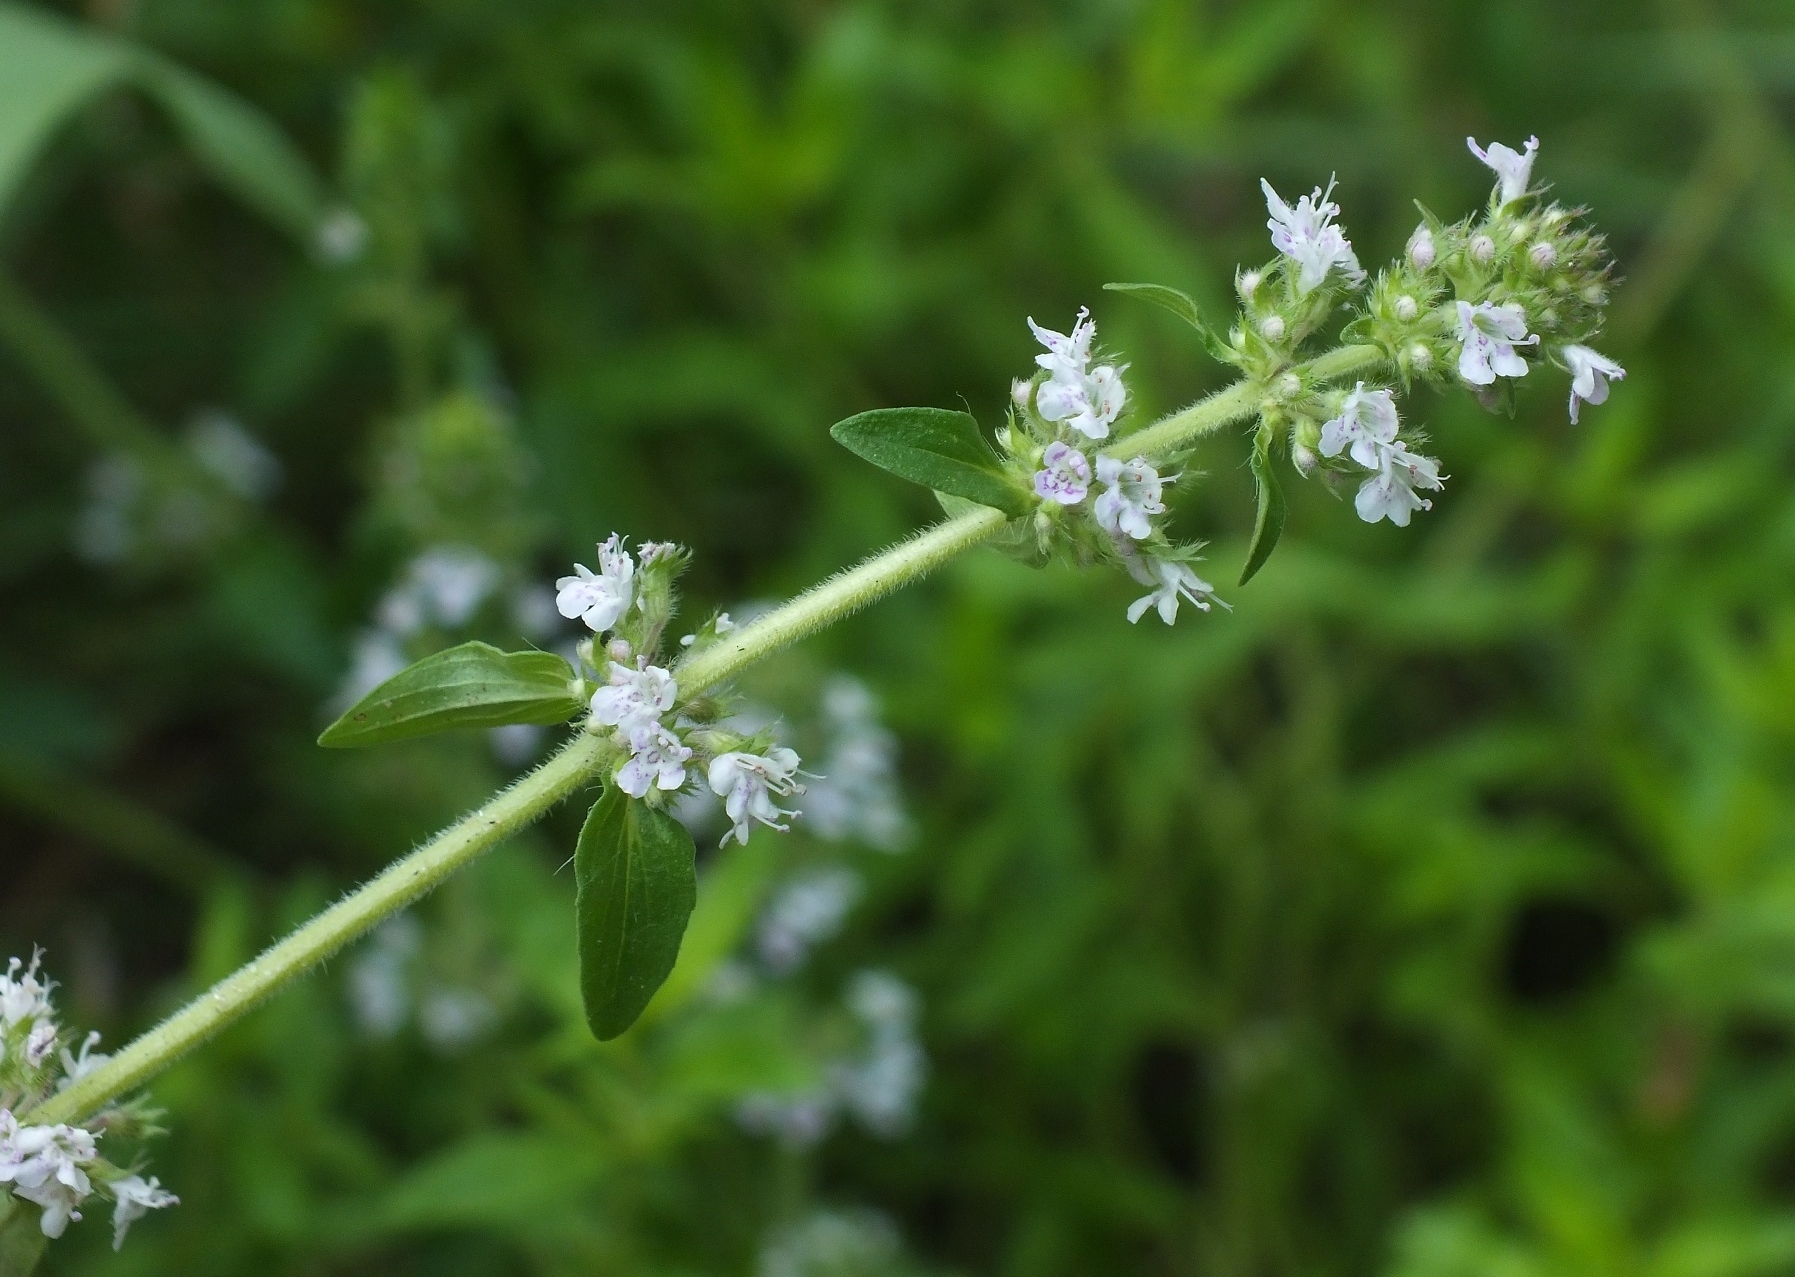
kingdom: Plantae
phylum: Tracheophyta
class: Magnoliopsida
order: Lamiales
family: Lamiaceae
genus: Thymus
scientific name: Thymus pannonicus
